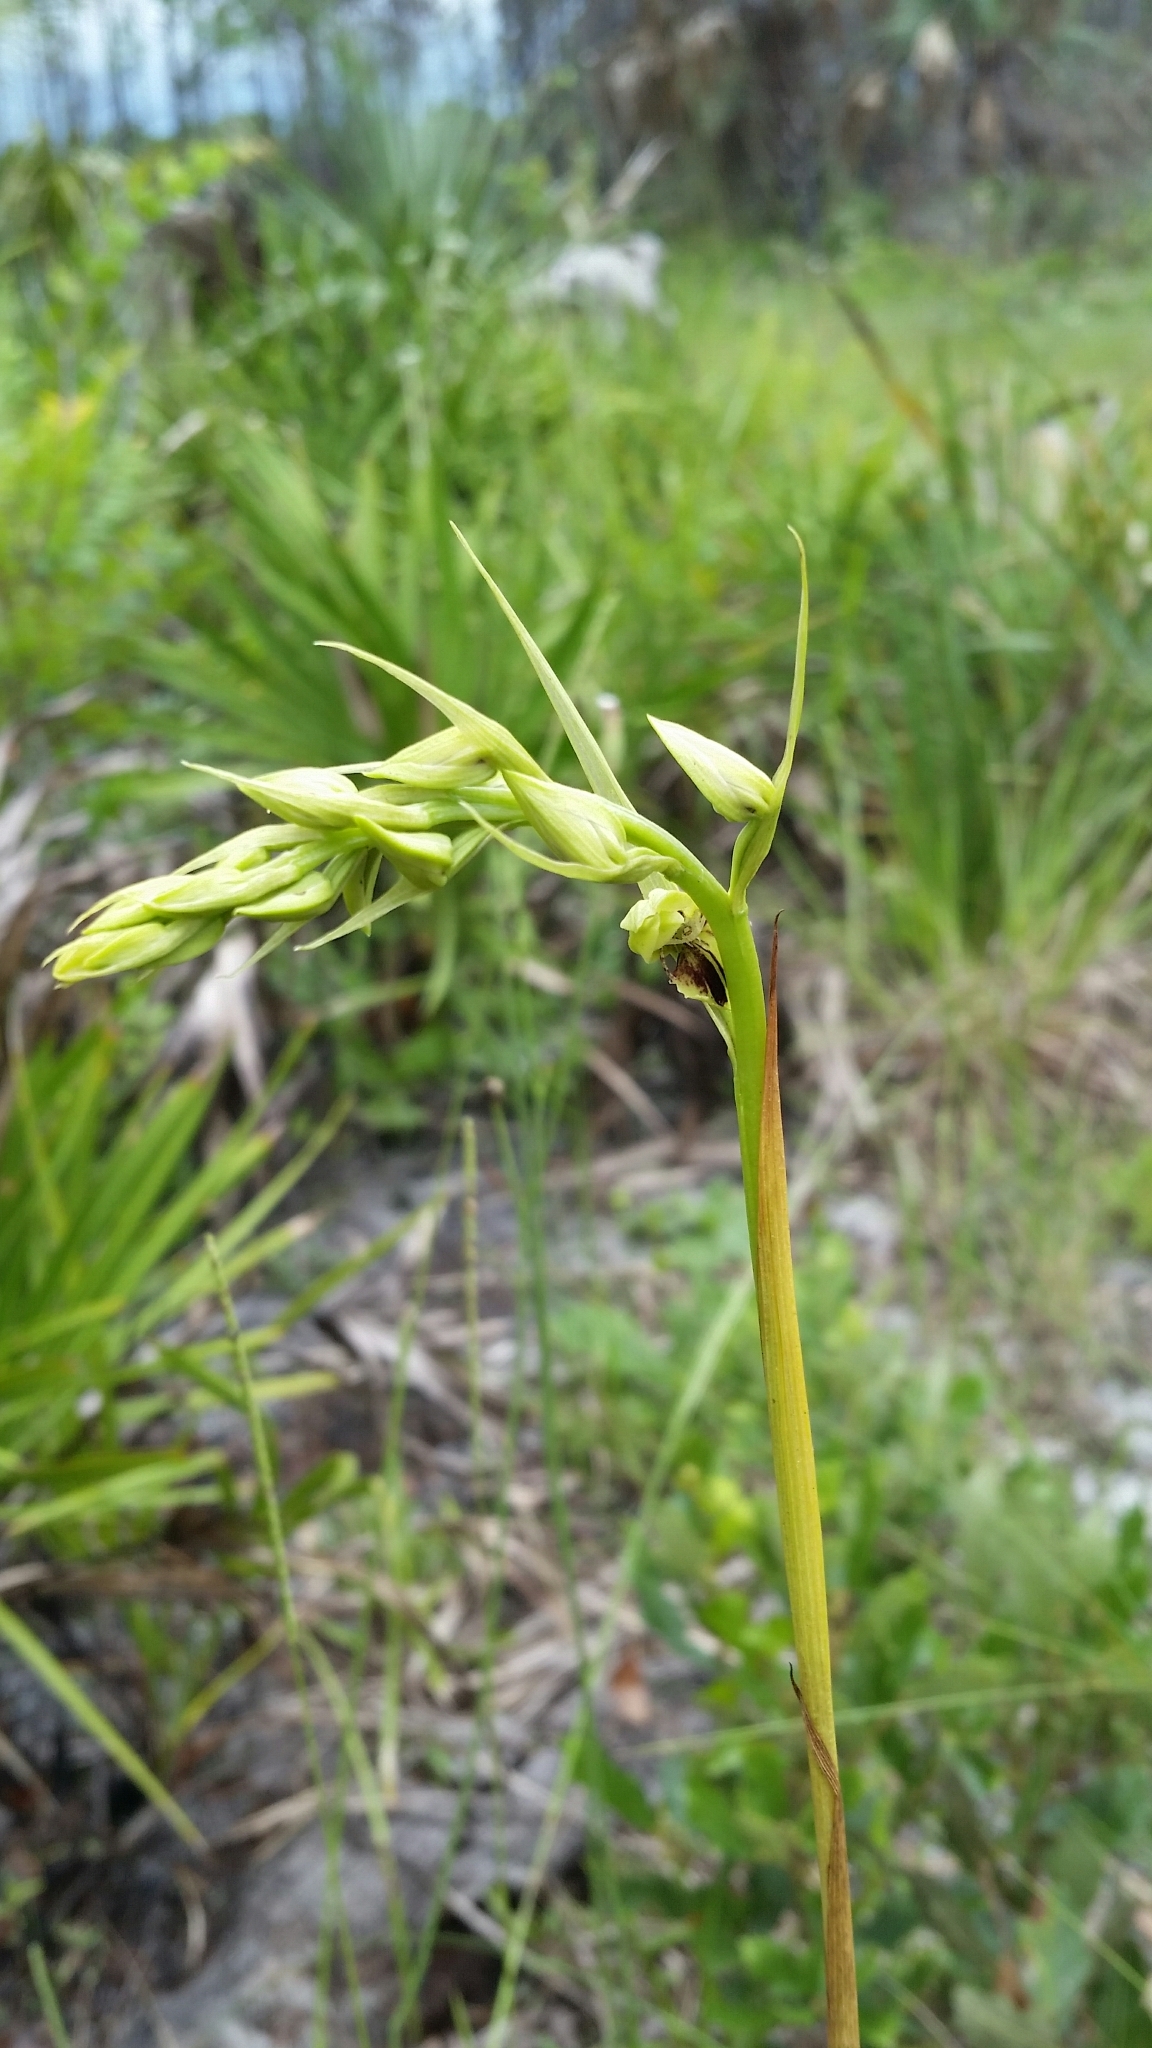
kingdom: Plantae
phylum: Tracheophyta
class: Liliopsida
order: Asparagales
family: Orchidaceae
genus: Eulophia
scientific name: Eulophia ecristata
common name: Giant orchid
